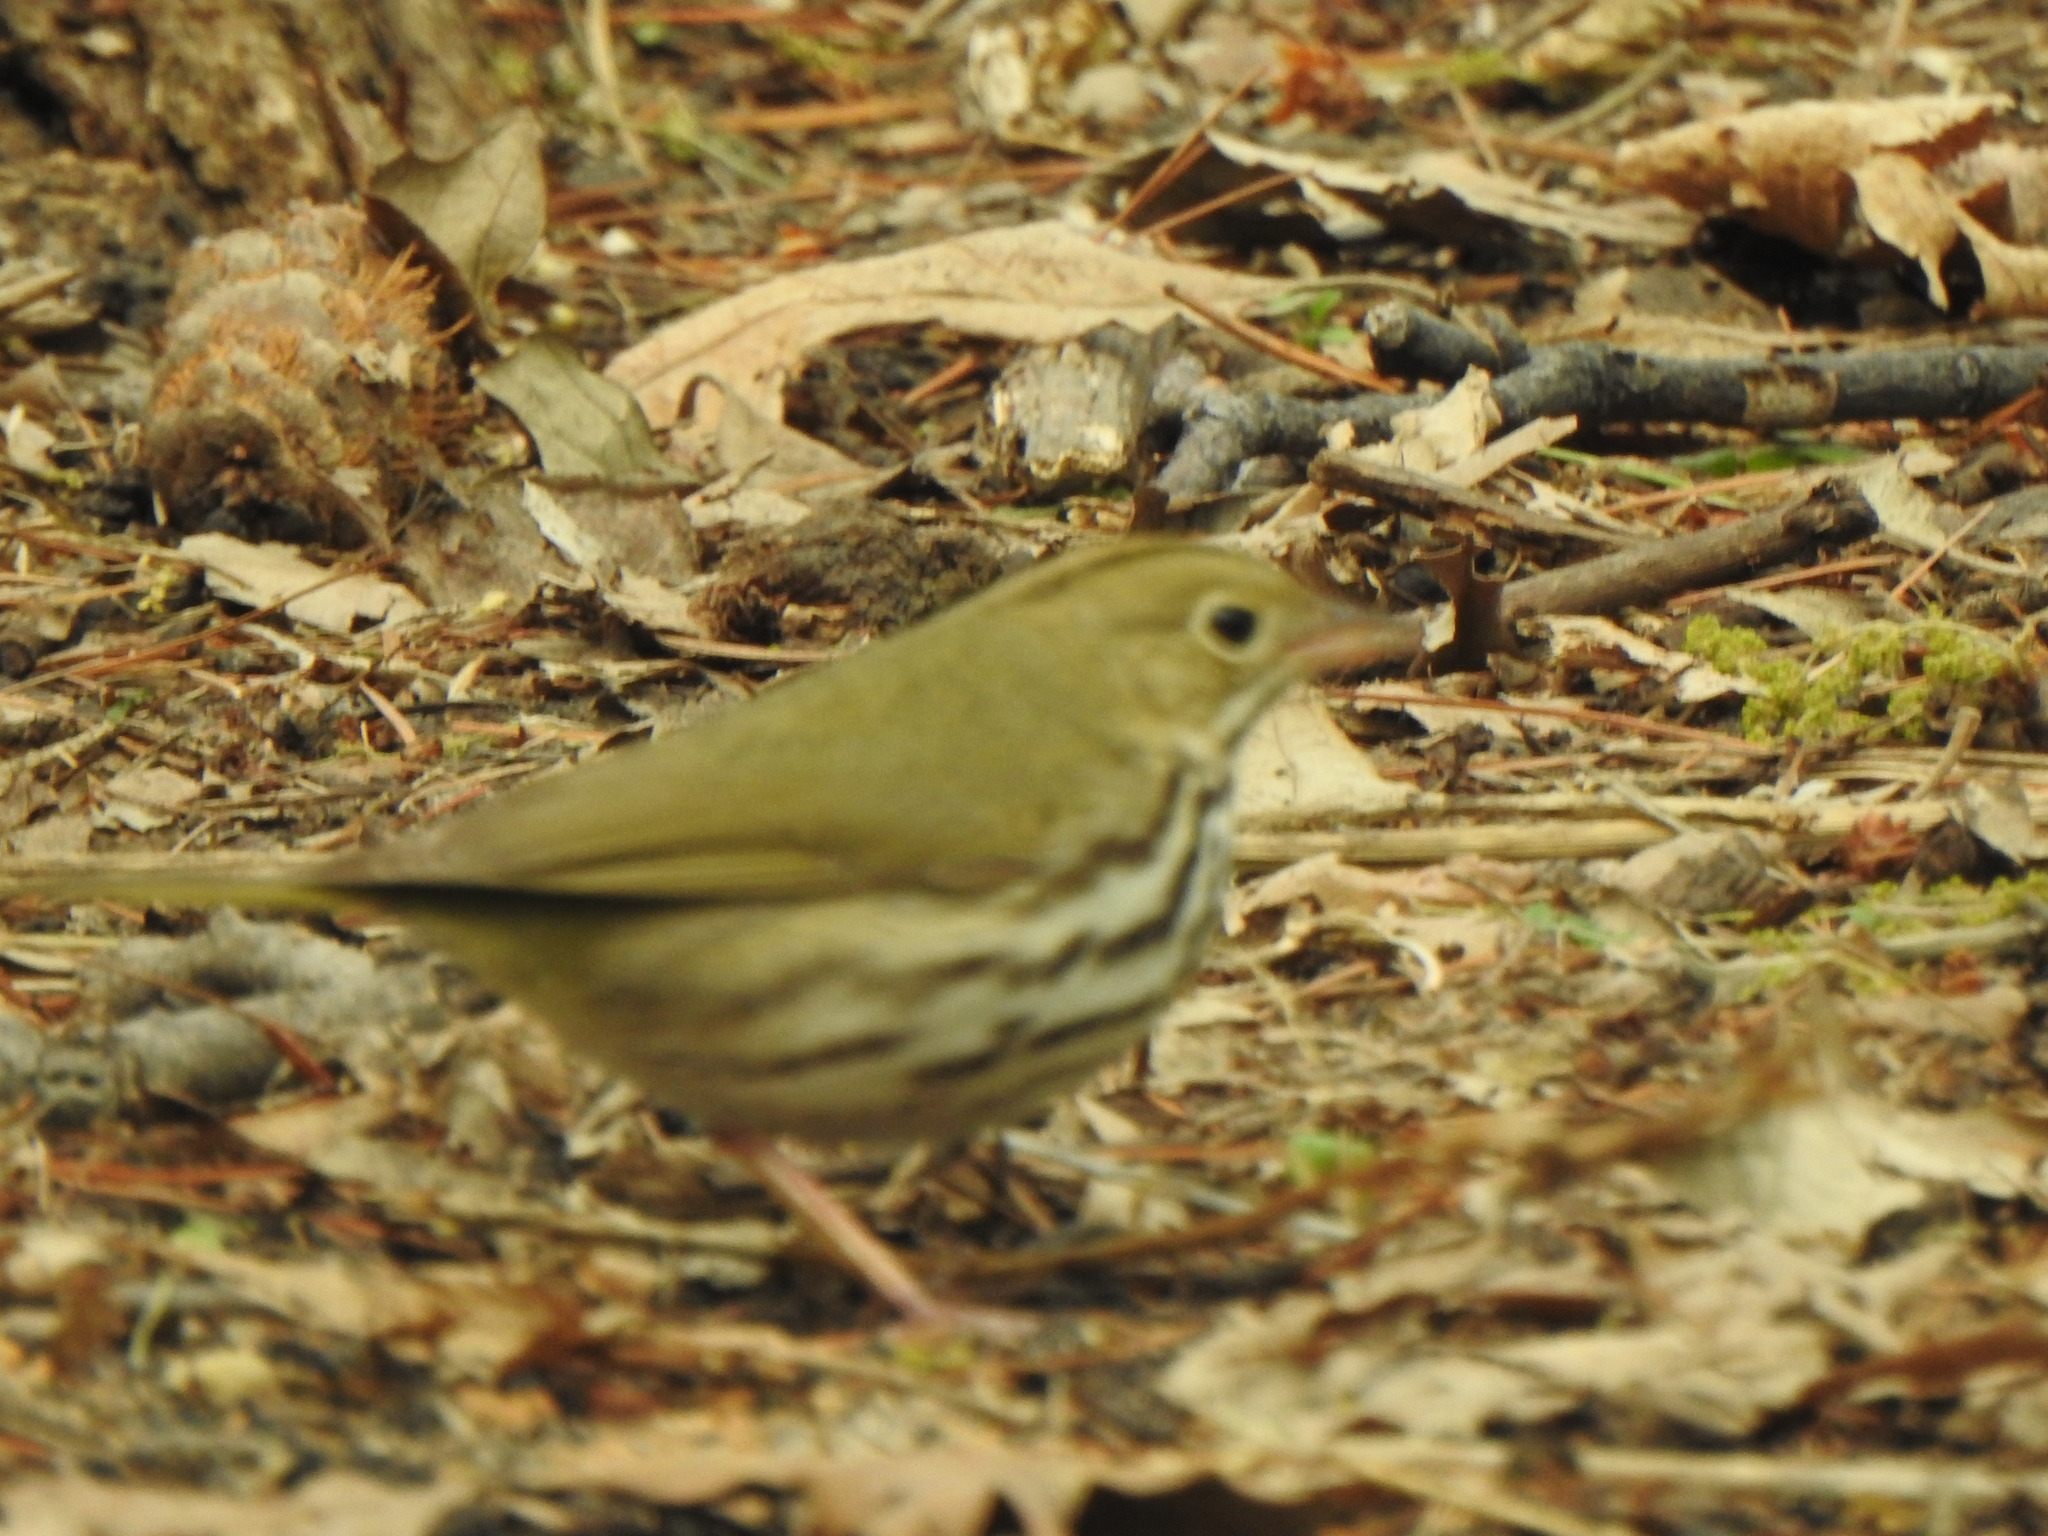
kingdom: Animalia
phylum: Chordata
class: Aves
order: Passeriformes
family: Parulidae
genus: Seiurus
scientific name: Seiurus aurocapilla
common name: Ovenbird
